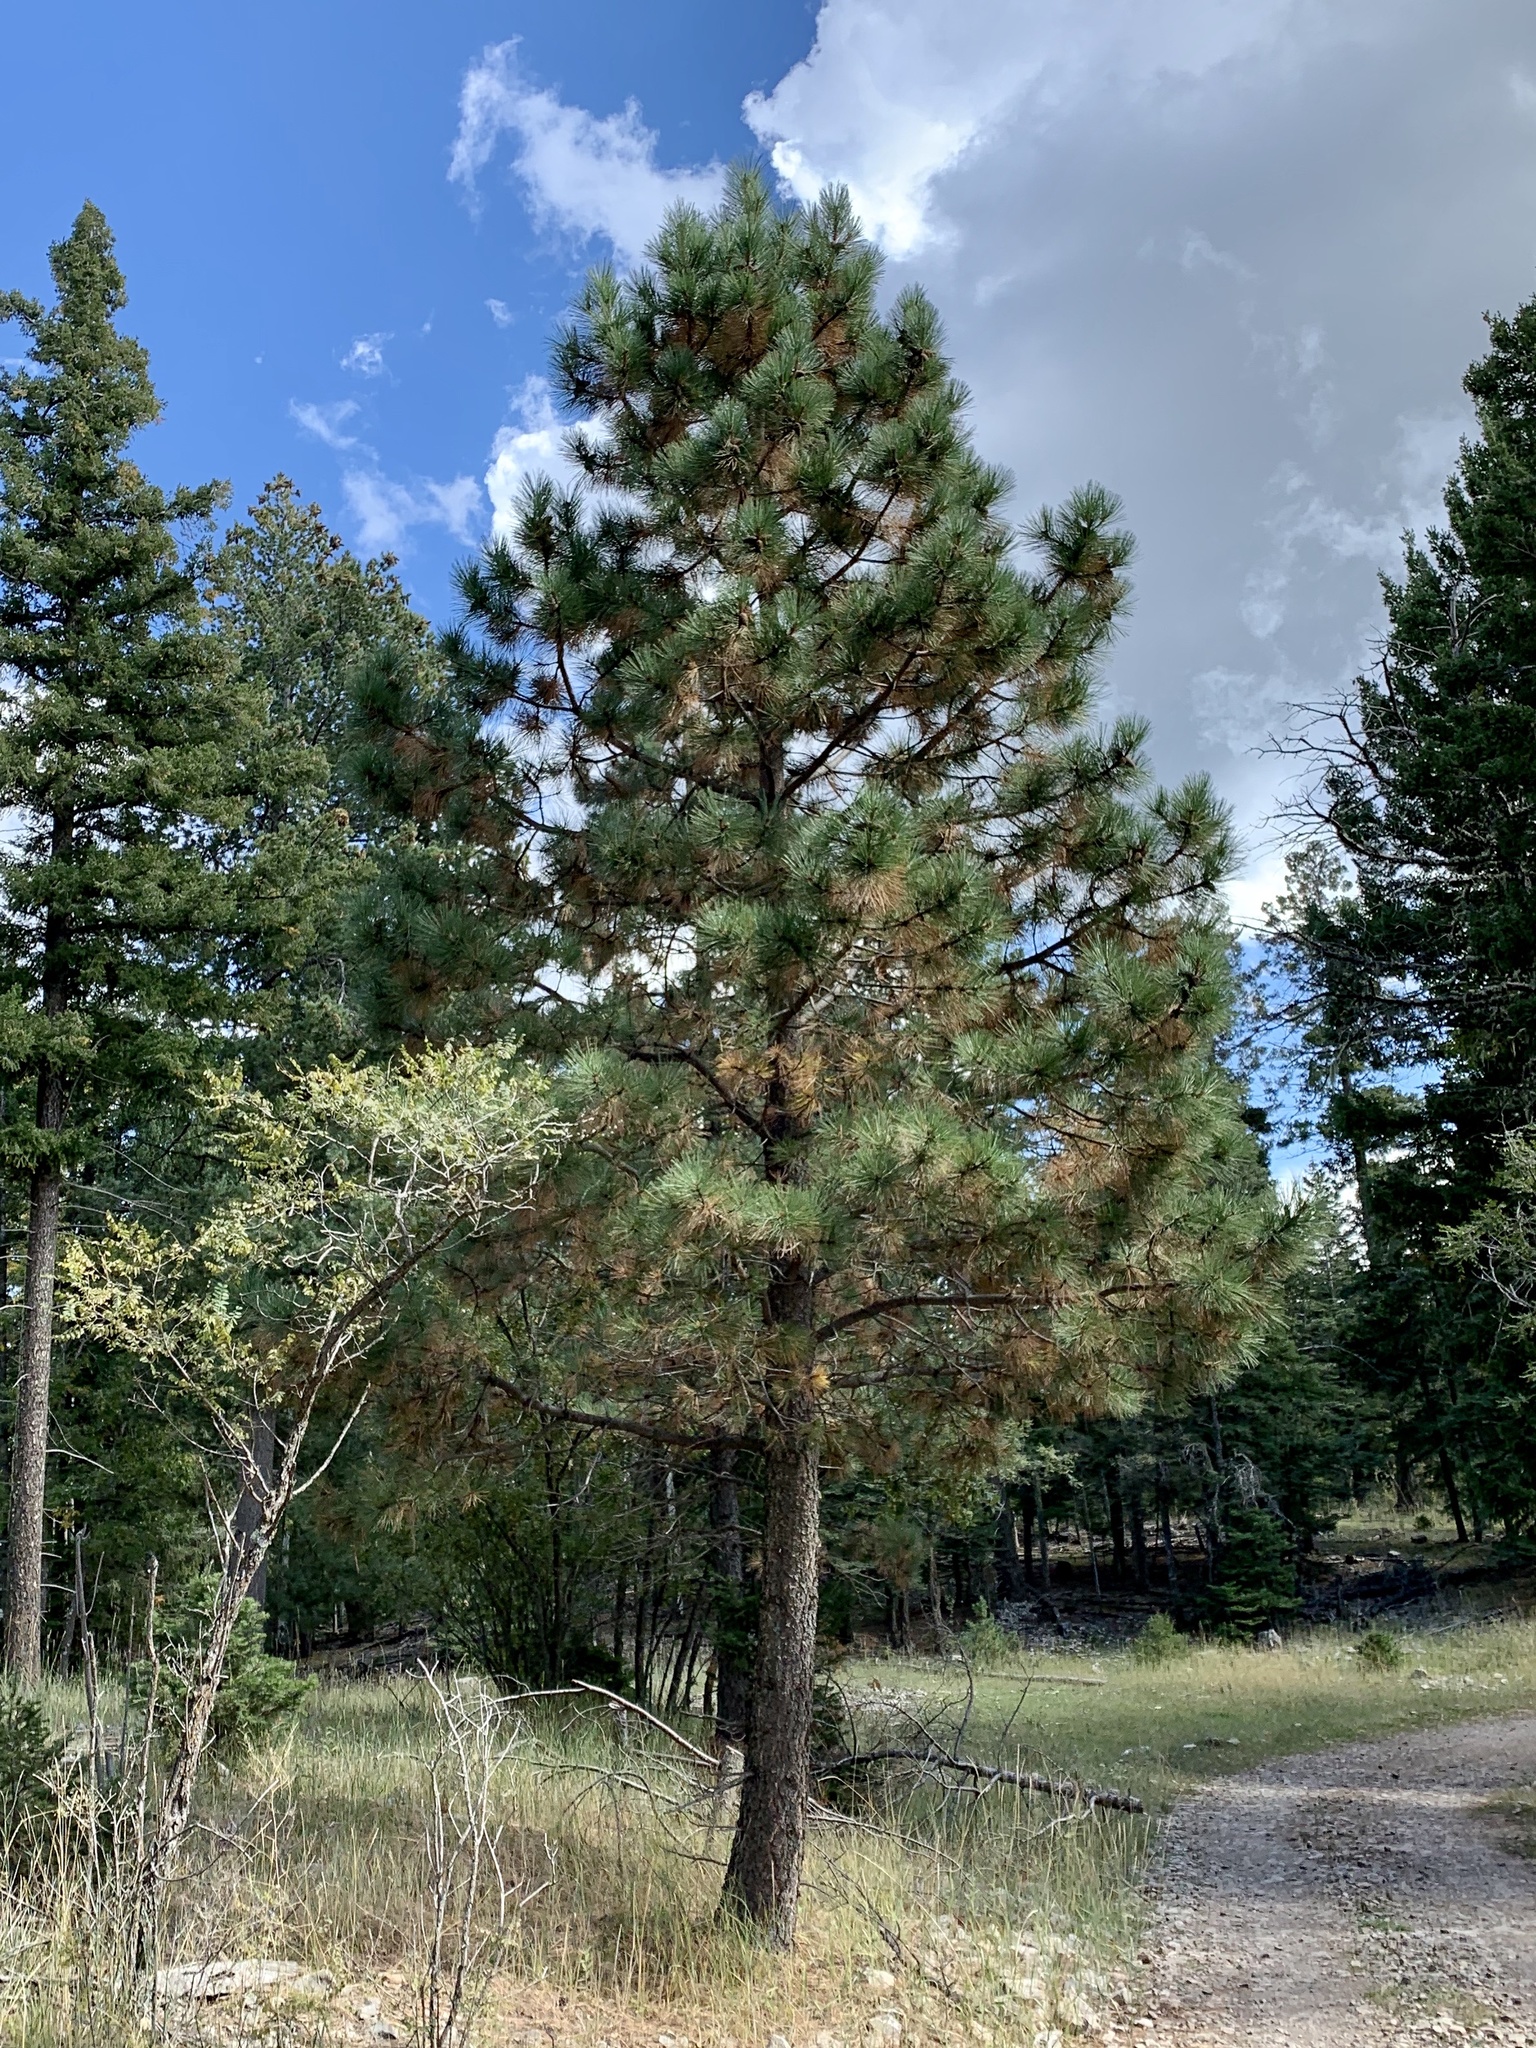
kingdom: Plantae
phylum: Tracheophyta
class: Pinopsida
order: Pinales
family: Pinaceae
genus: Pinus
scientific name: Pinus ponderosa
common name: Western yellow-pine
